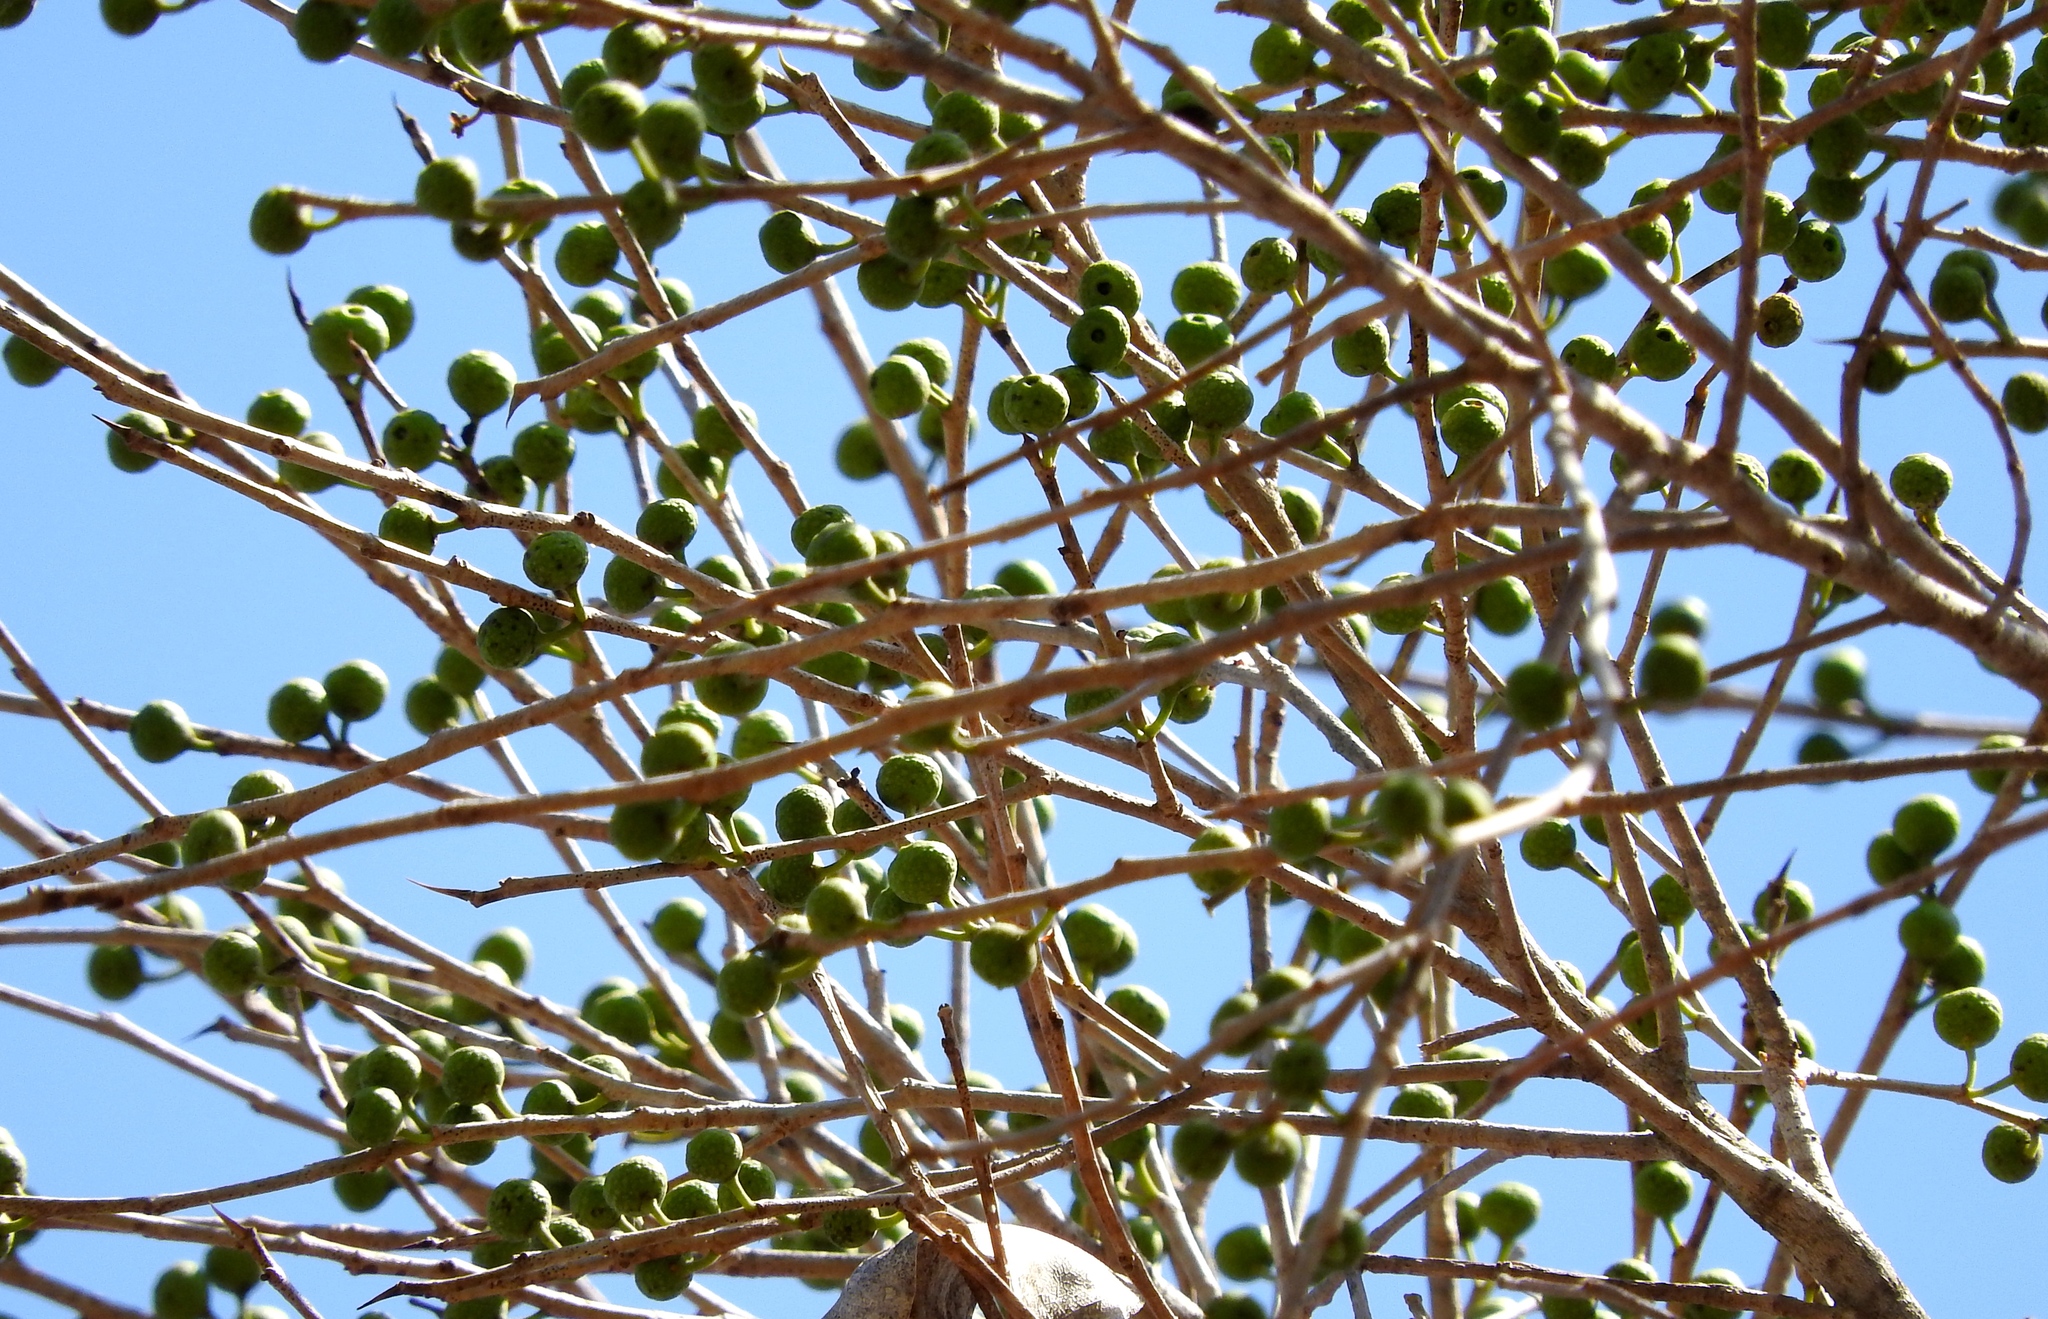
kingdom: Plantae
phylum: Tracheophyta
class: Magnoliopsida
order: Rosales
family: Moraceae
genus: Ficus
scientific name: Ficus pertusa
